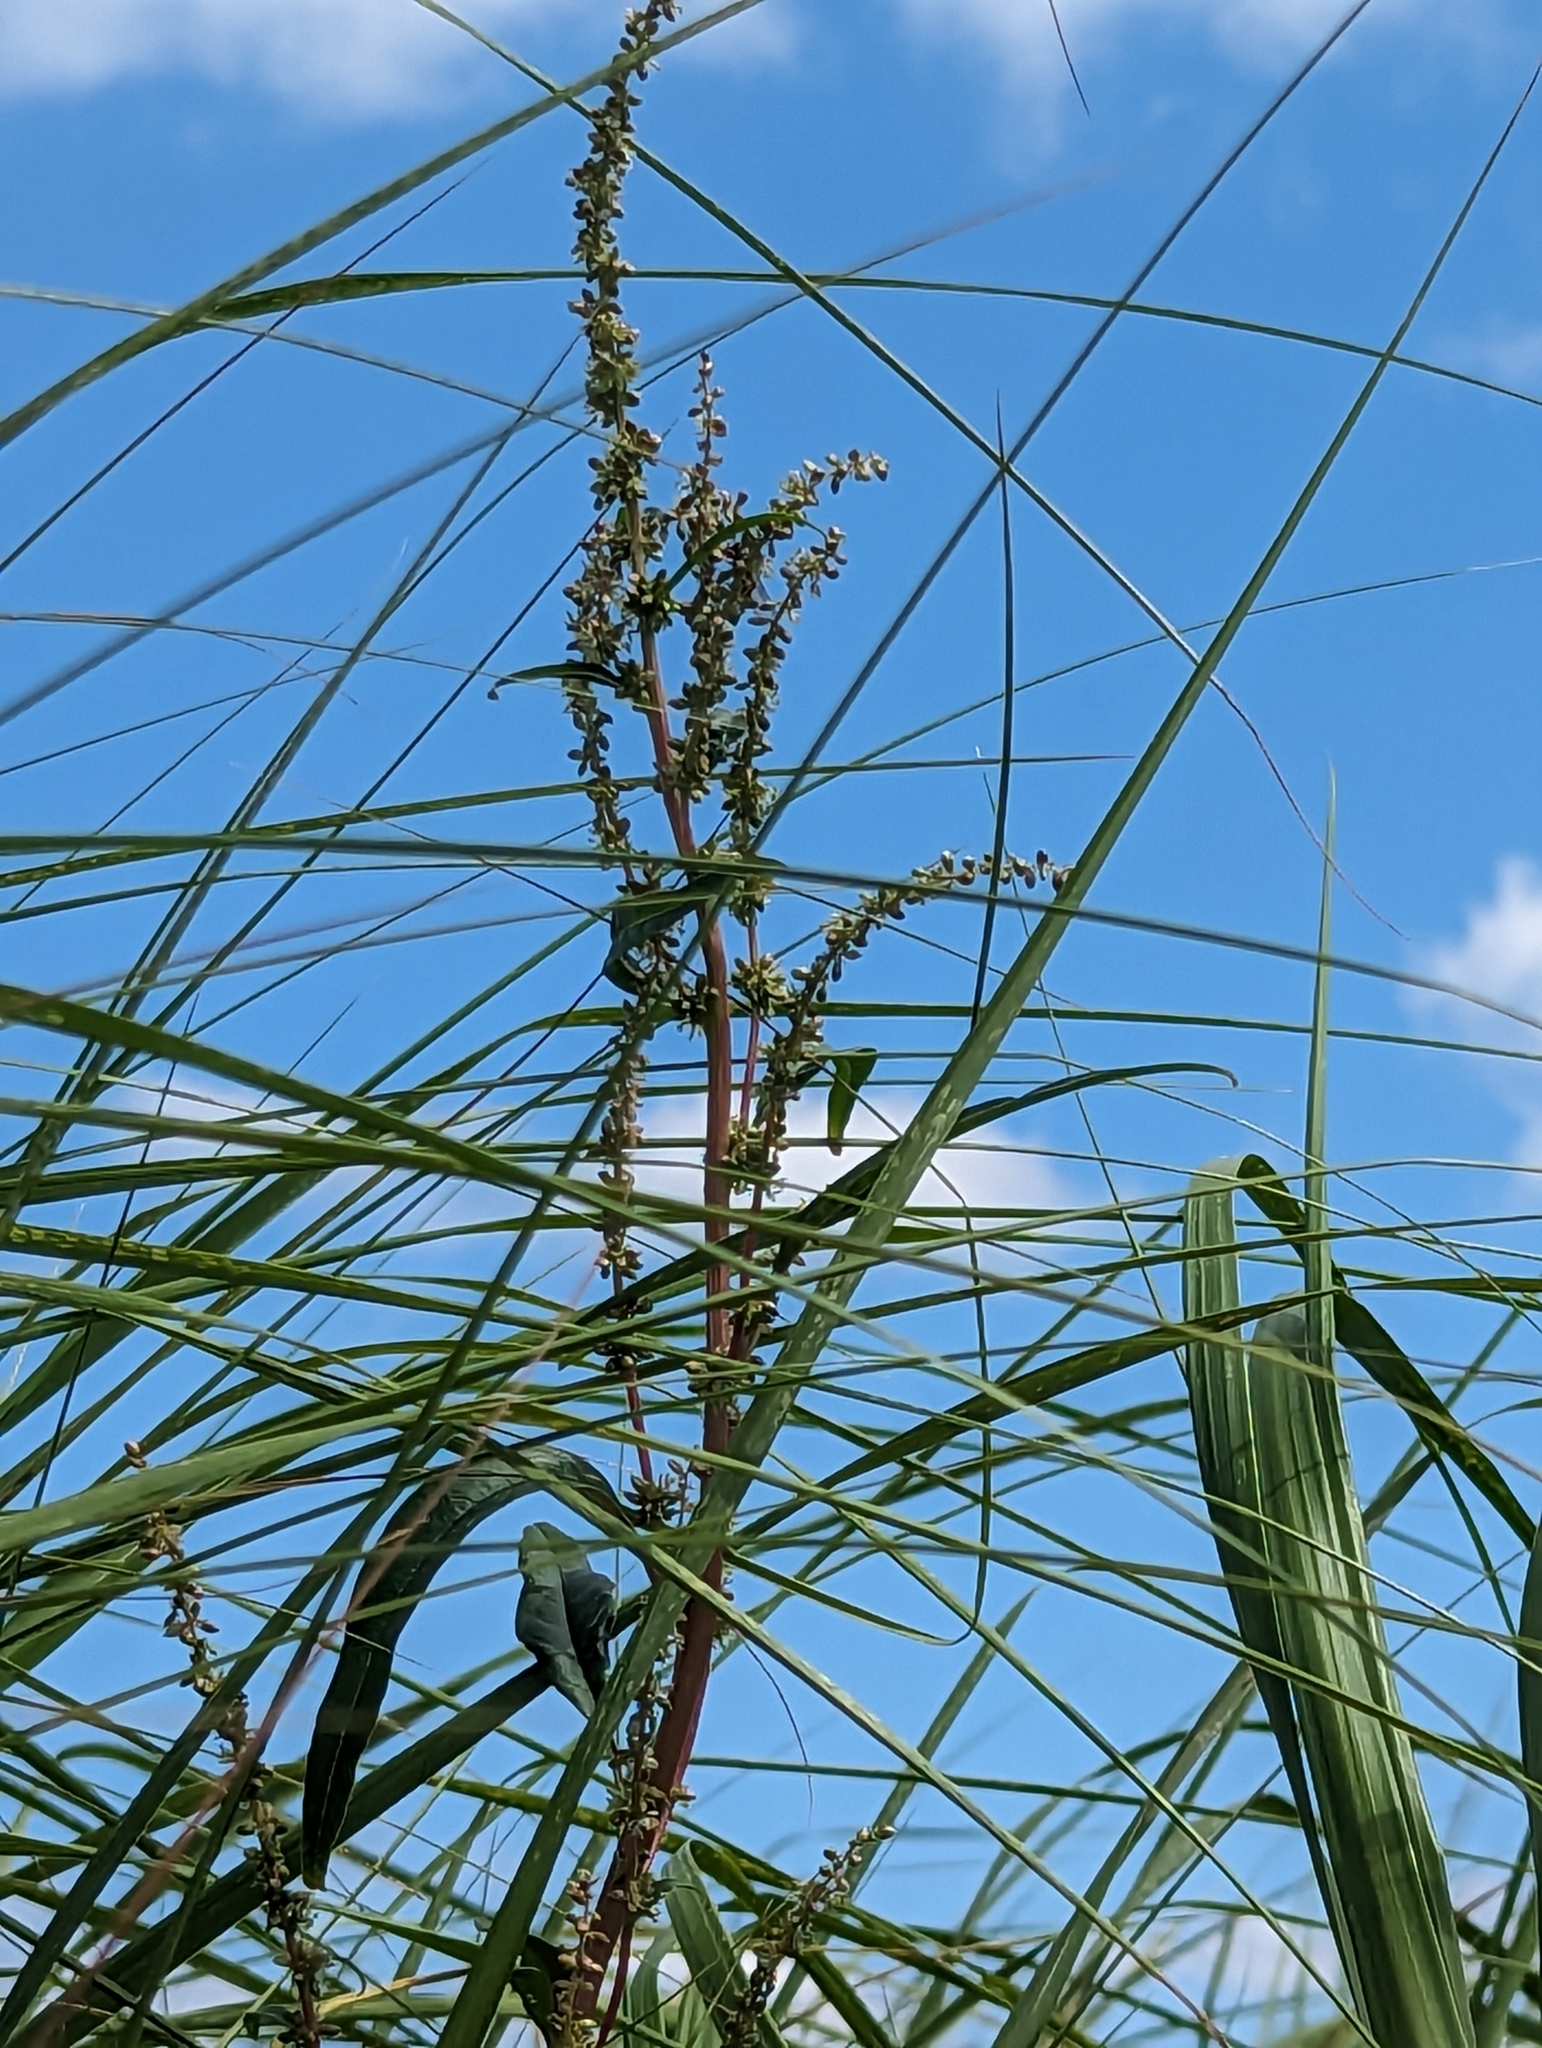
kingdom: Plantae
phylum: Tracheophyta
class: Magnoliopsida
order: Caryophyllales
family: Amaranthaceae
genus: Amaranthus
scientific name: Amaranthus cannabinus
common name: Salt-marsh water-hemp
